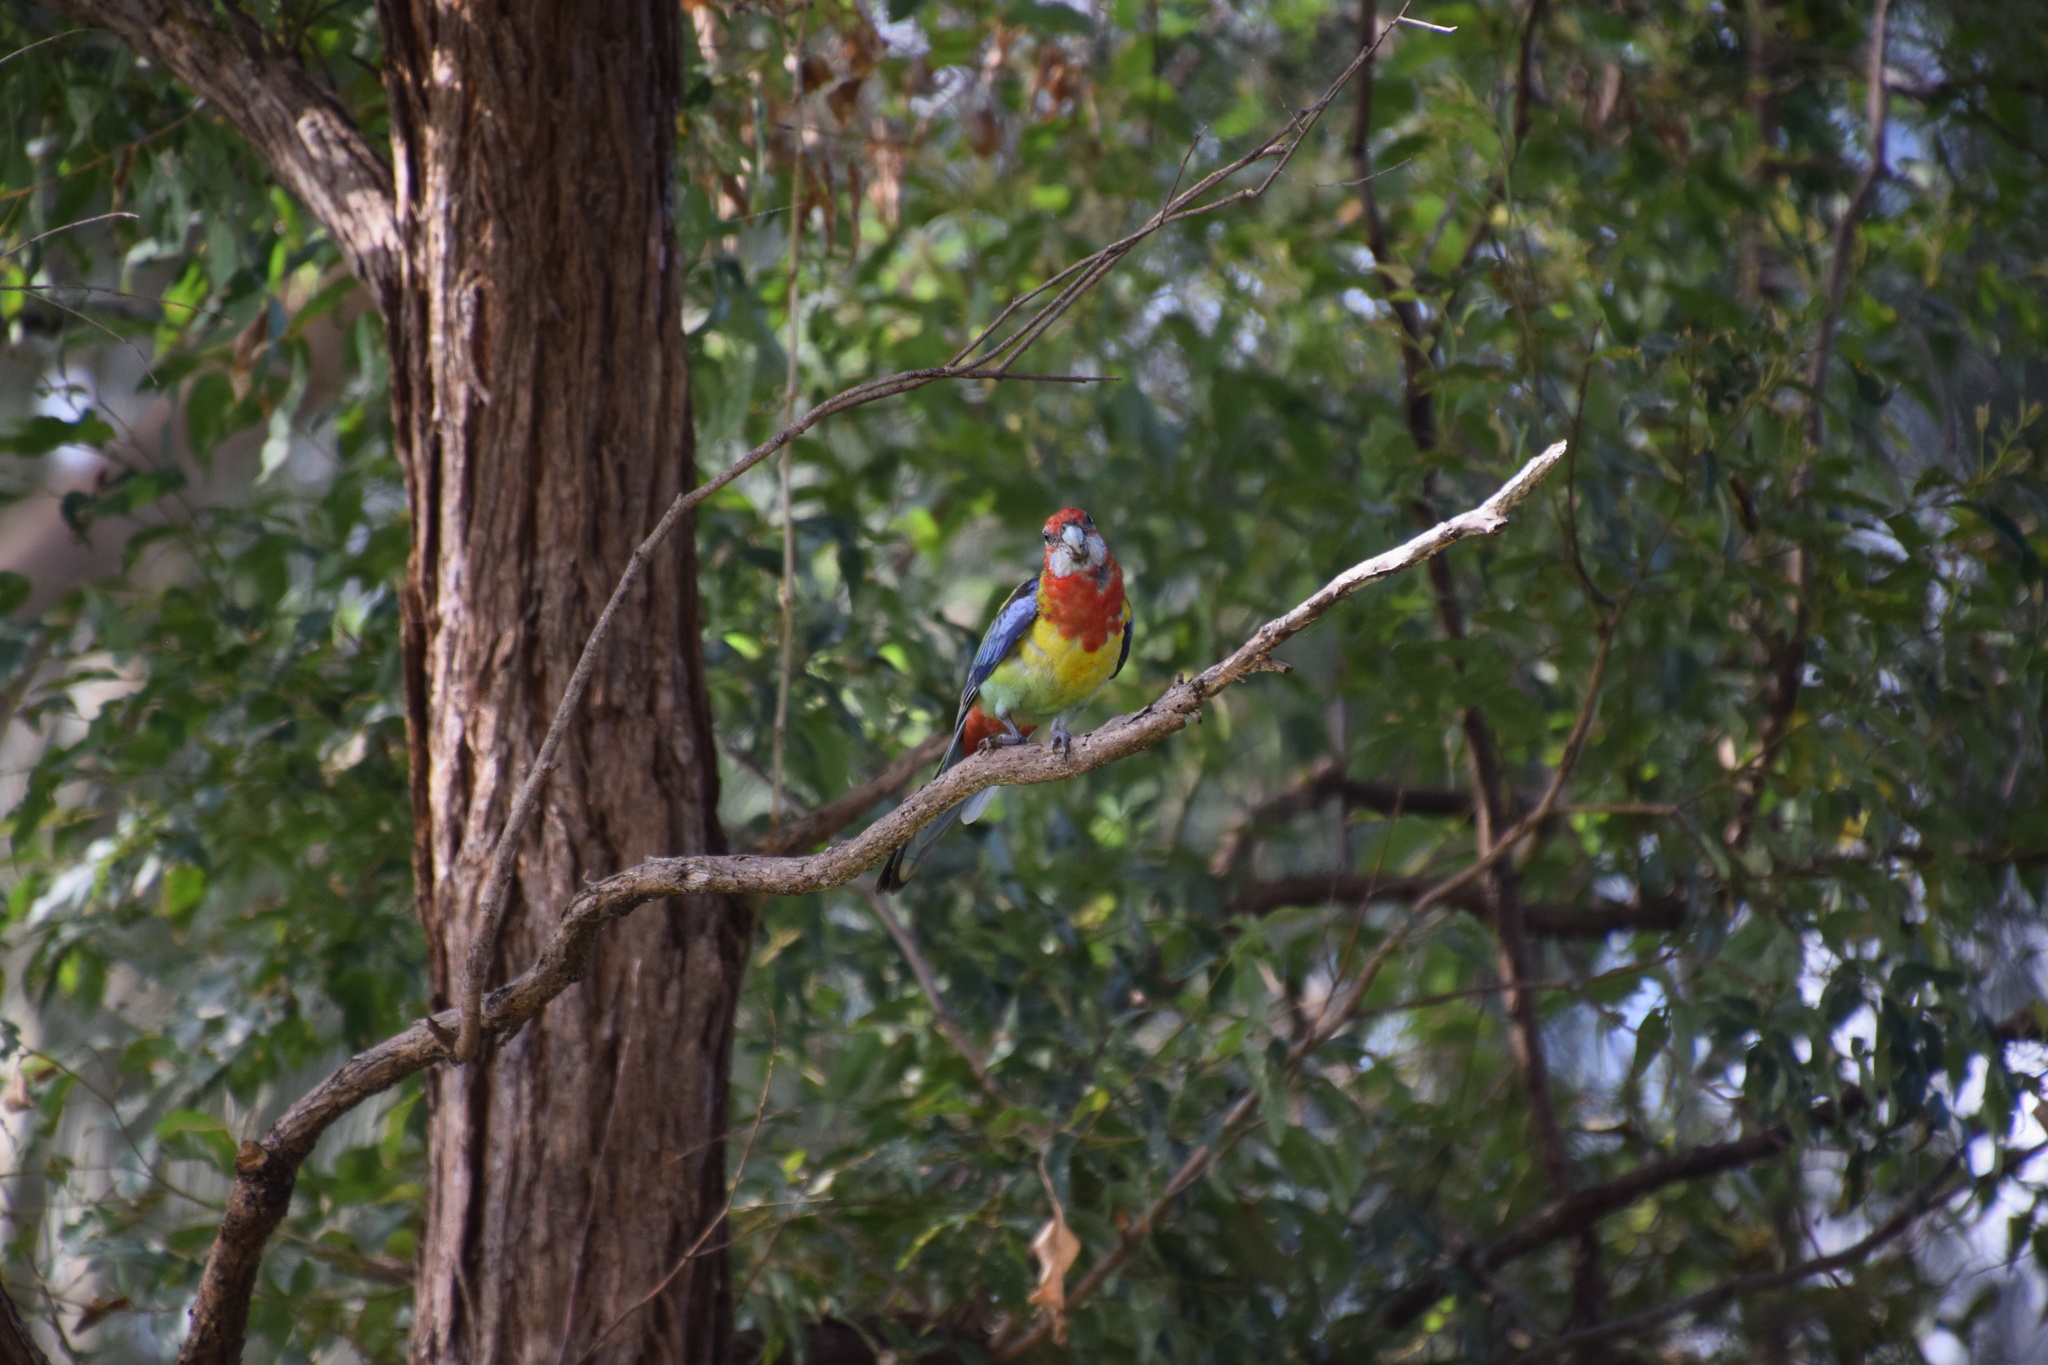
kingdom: Animalia
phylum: Chordata
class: Aves
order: Psittaciformes
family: Psittacidae
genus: Platycercus
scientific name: Platycercus eximius
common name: Eastern rosella
